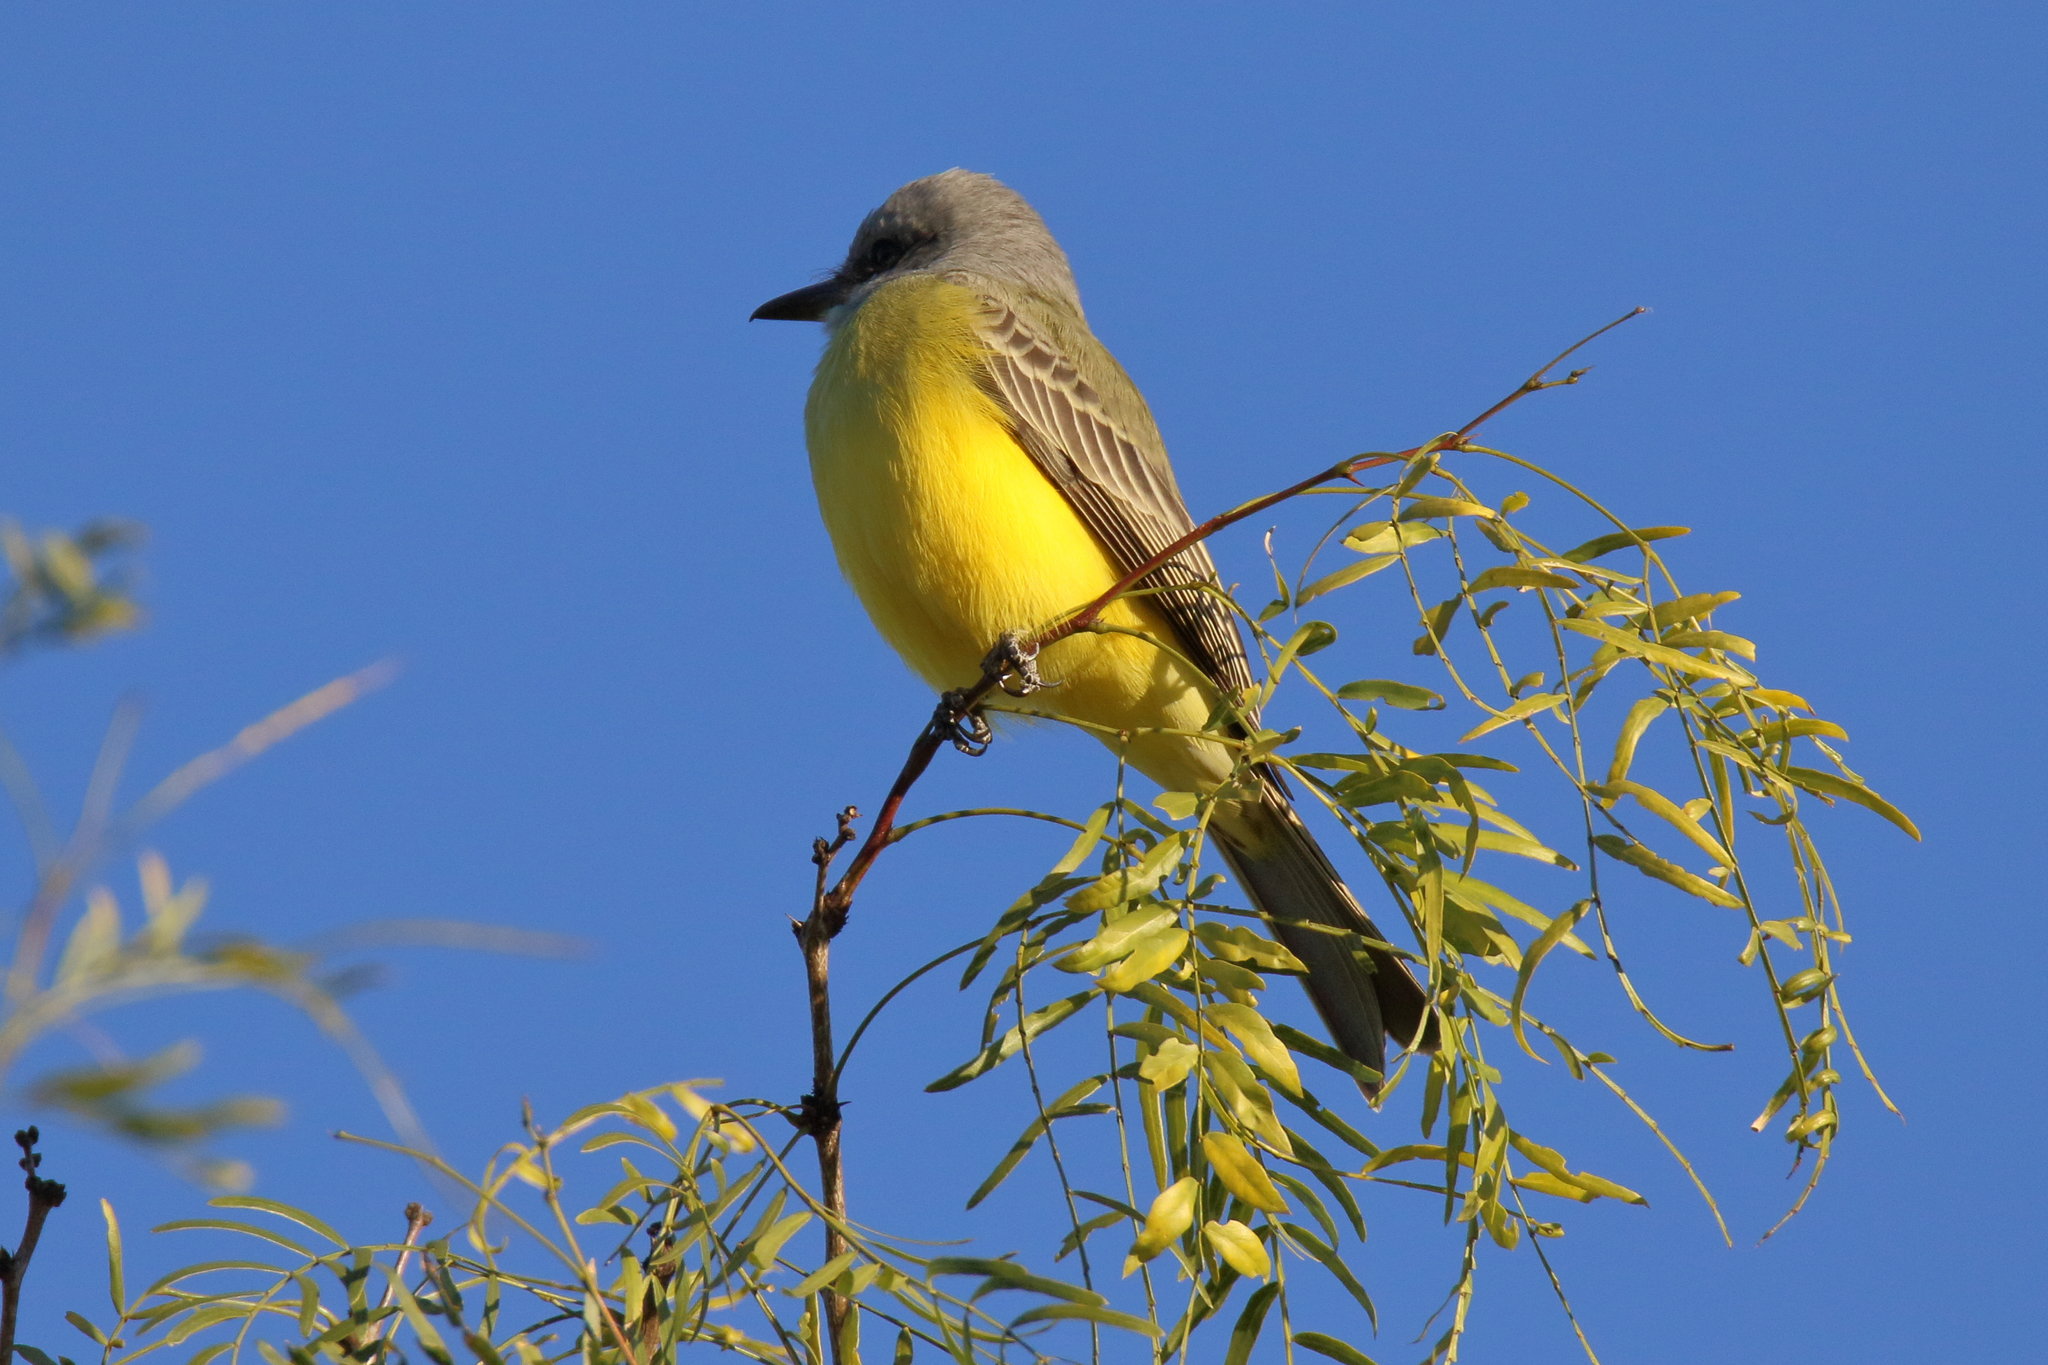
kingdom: Animalia
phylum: Chordata
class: Aves
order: Passeriformes
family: Tyrannidae
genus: Tyrannus
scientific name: Tyrannus
